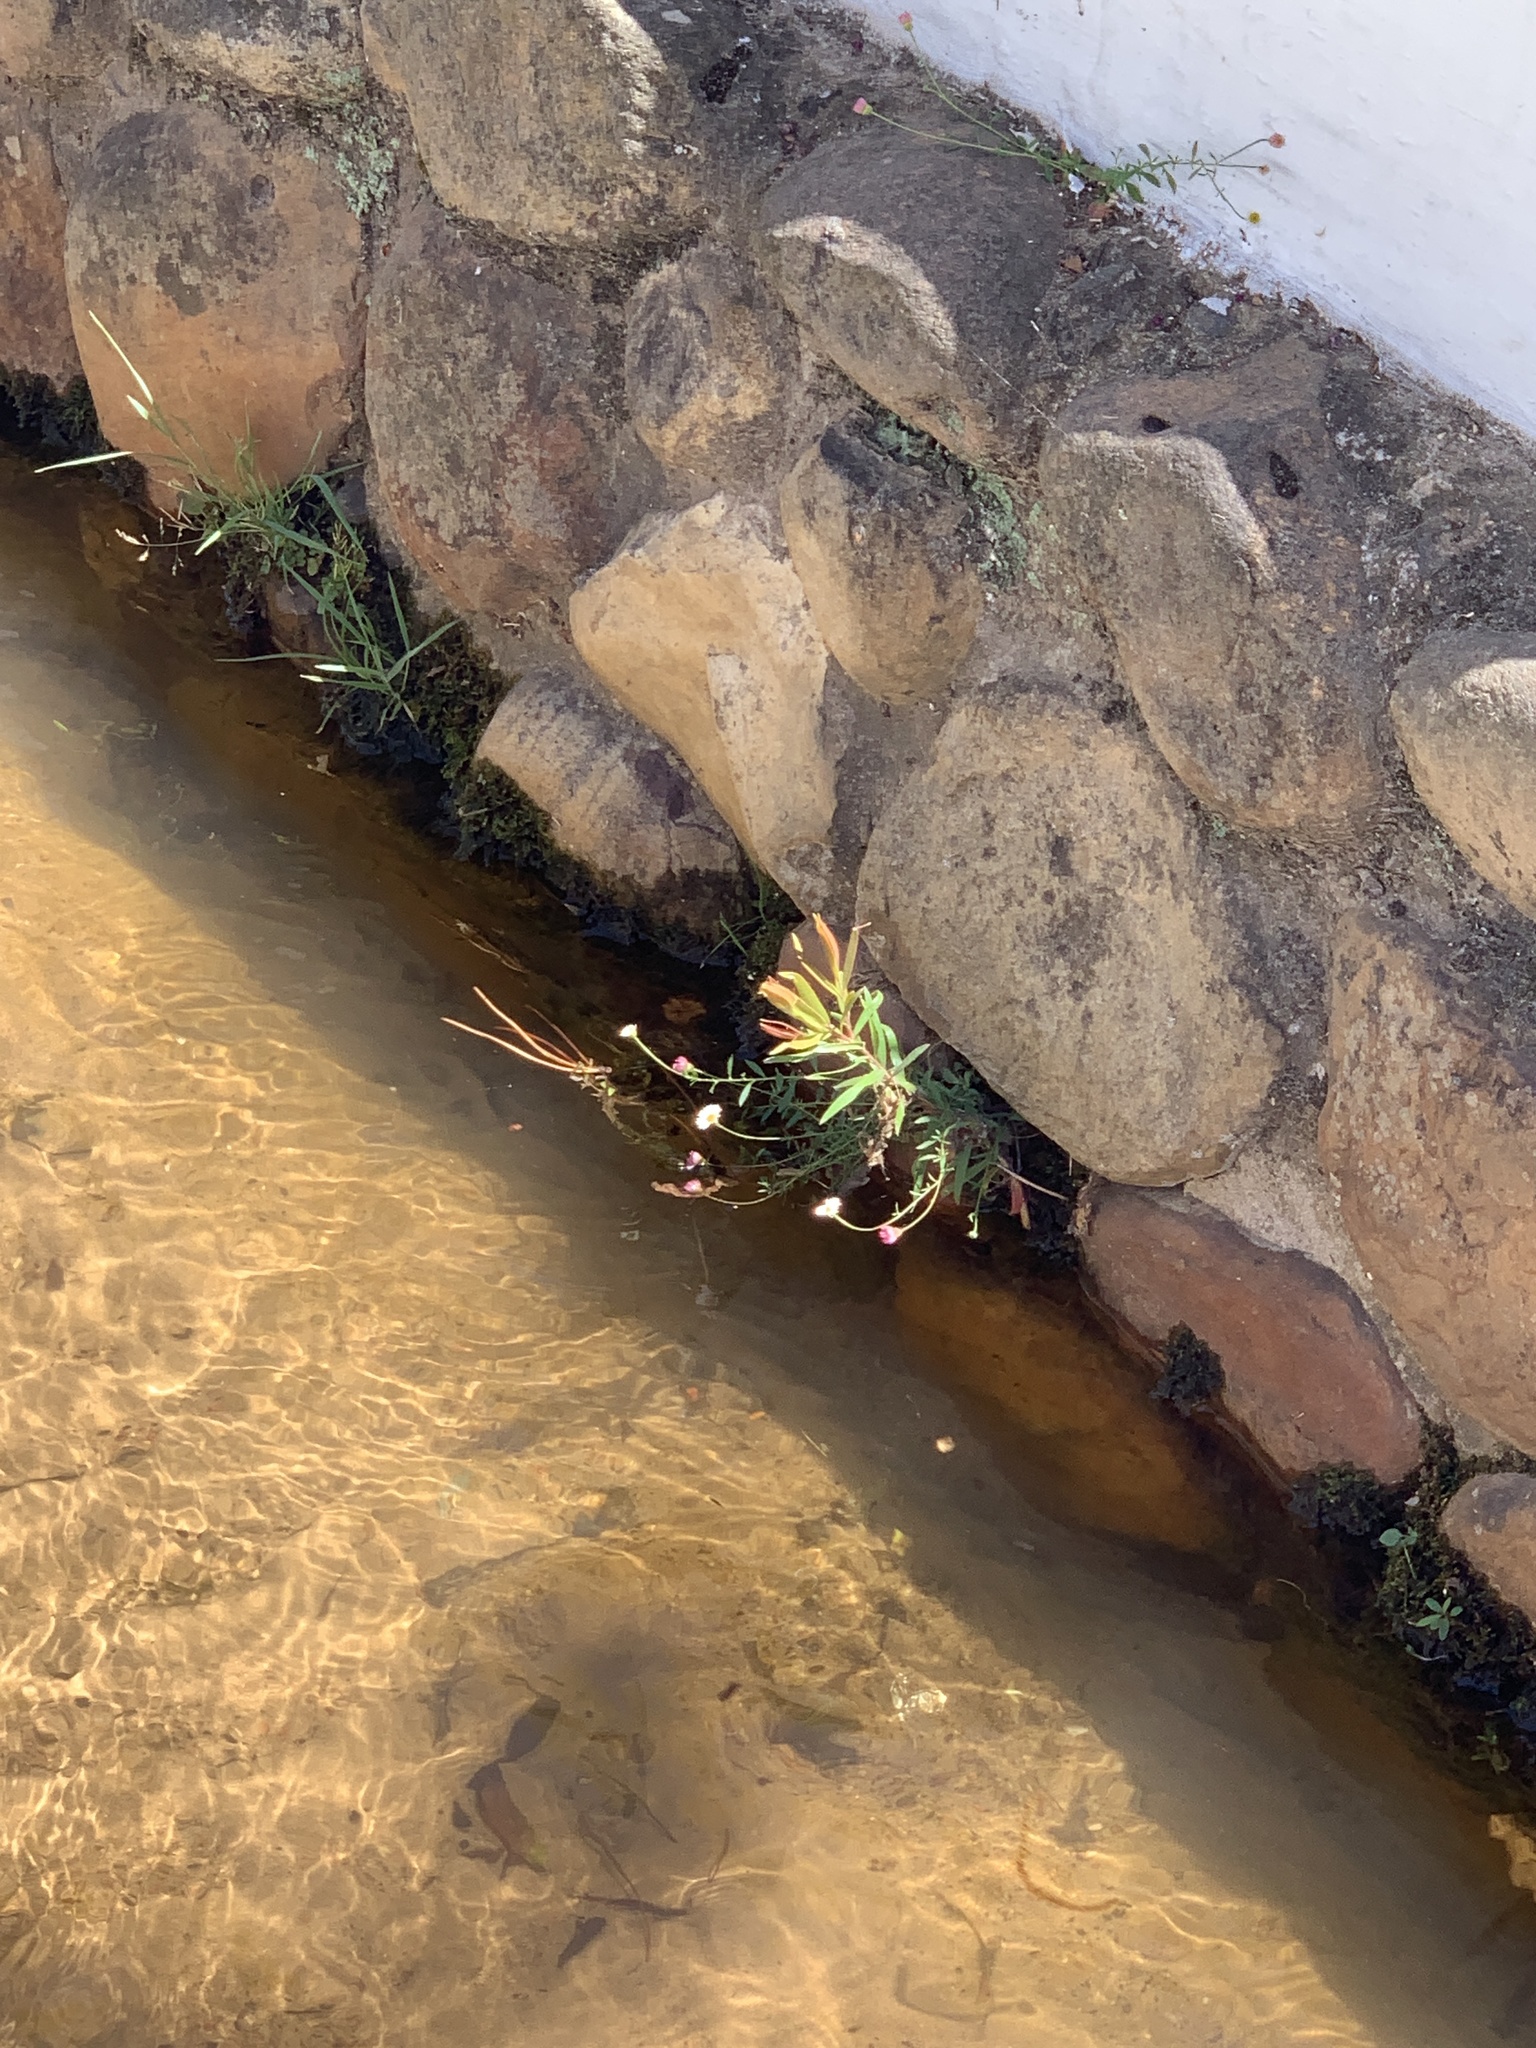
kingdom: Plantae
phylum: Tracheophyta
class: Magnoliopsida
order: Myrtales
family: Myrtaceae
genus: Callistemon
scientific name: Callistemon viminalis
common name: Drooping bottlebrush
